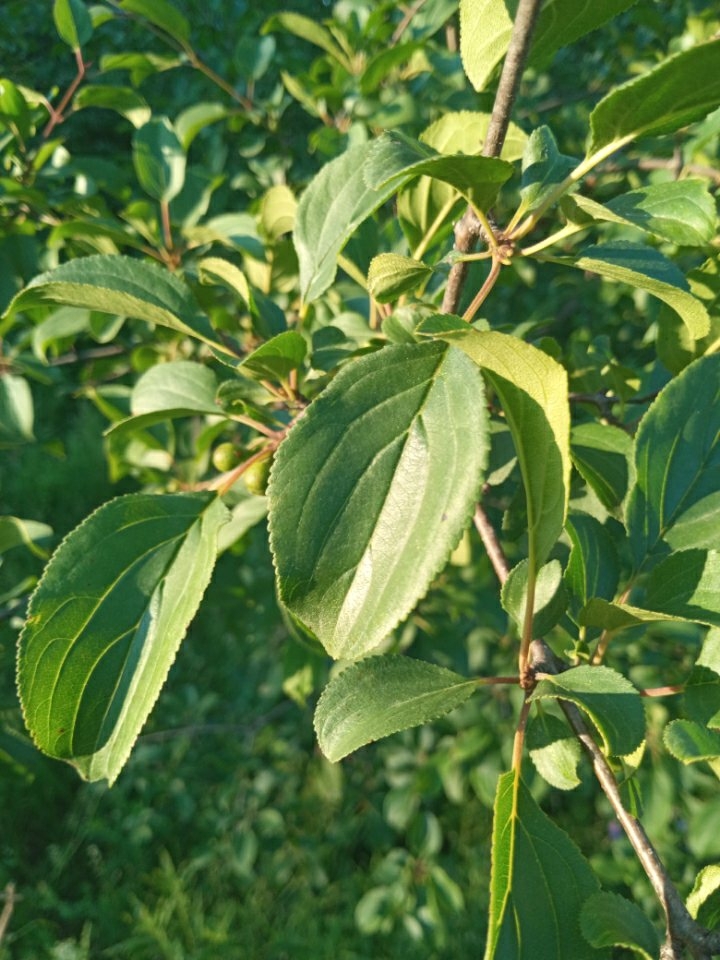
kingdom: Plantae
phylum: Tracheophyta
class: Magnoliopsida
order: Rosales
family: Rhamnaceae
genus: Rhamnus
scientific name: Rhamnus cathartica
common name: Common buckthorn
